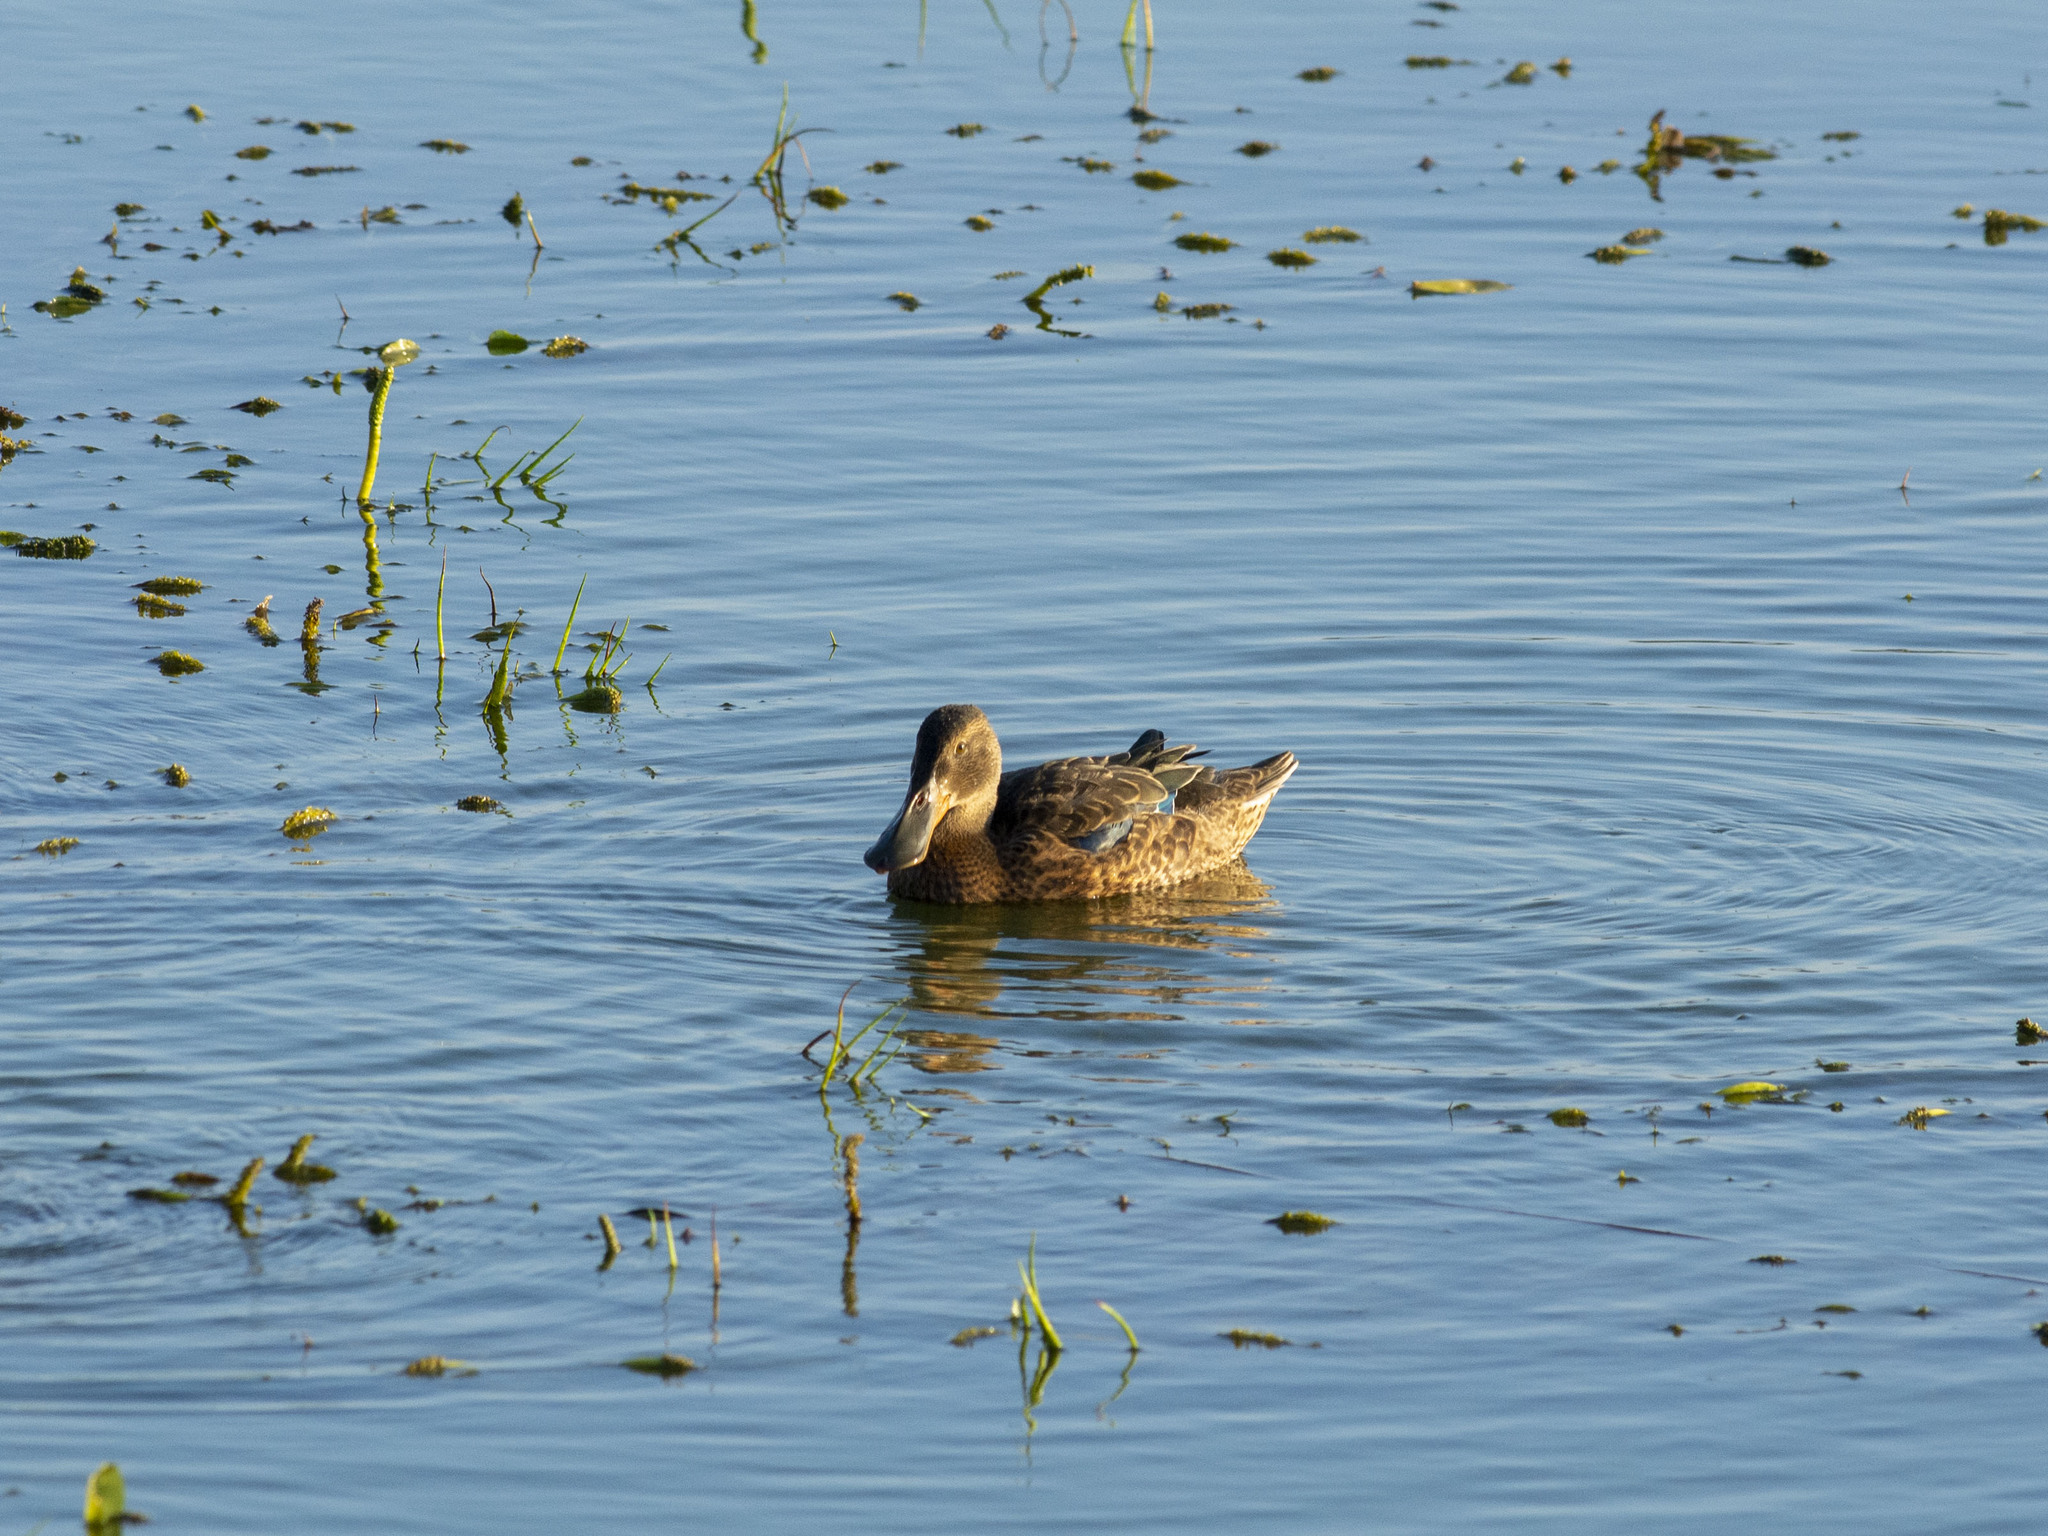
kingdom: Animalia
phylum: Chordata
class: Aves
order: Anseriformes
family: Anatidae
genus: Spatula
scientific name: Spatula clypeata
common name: Northern shoveler
